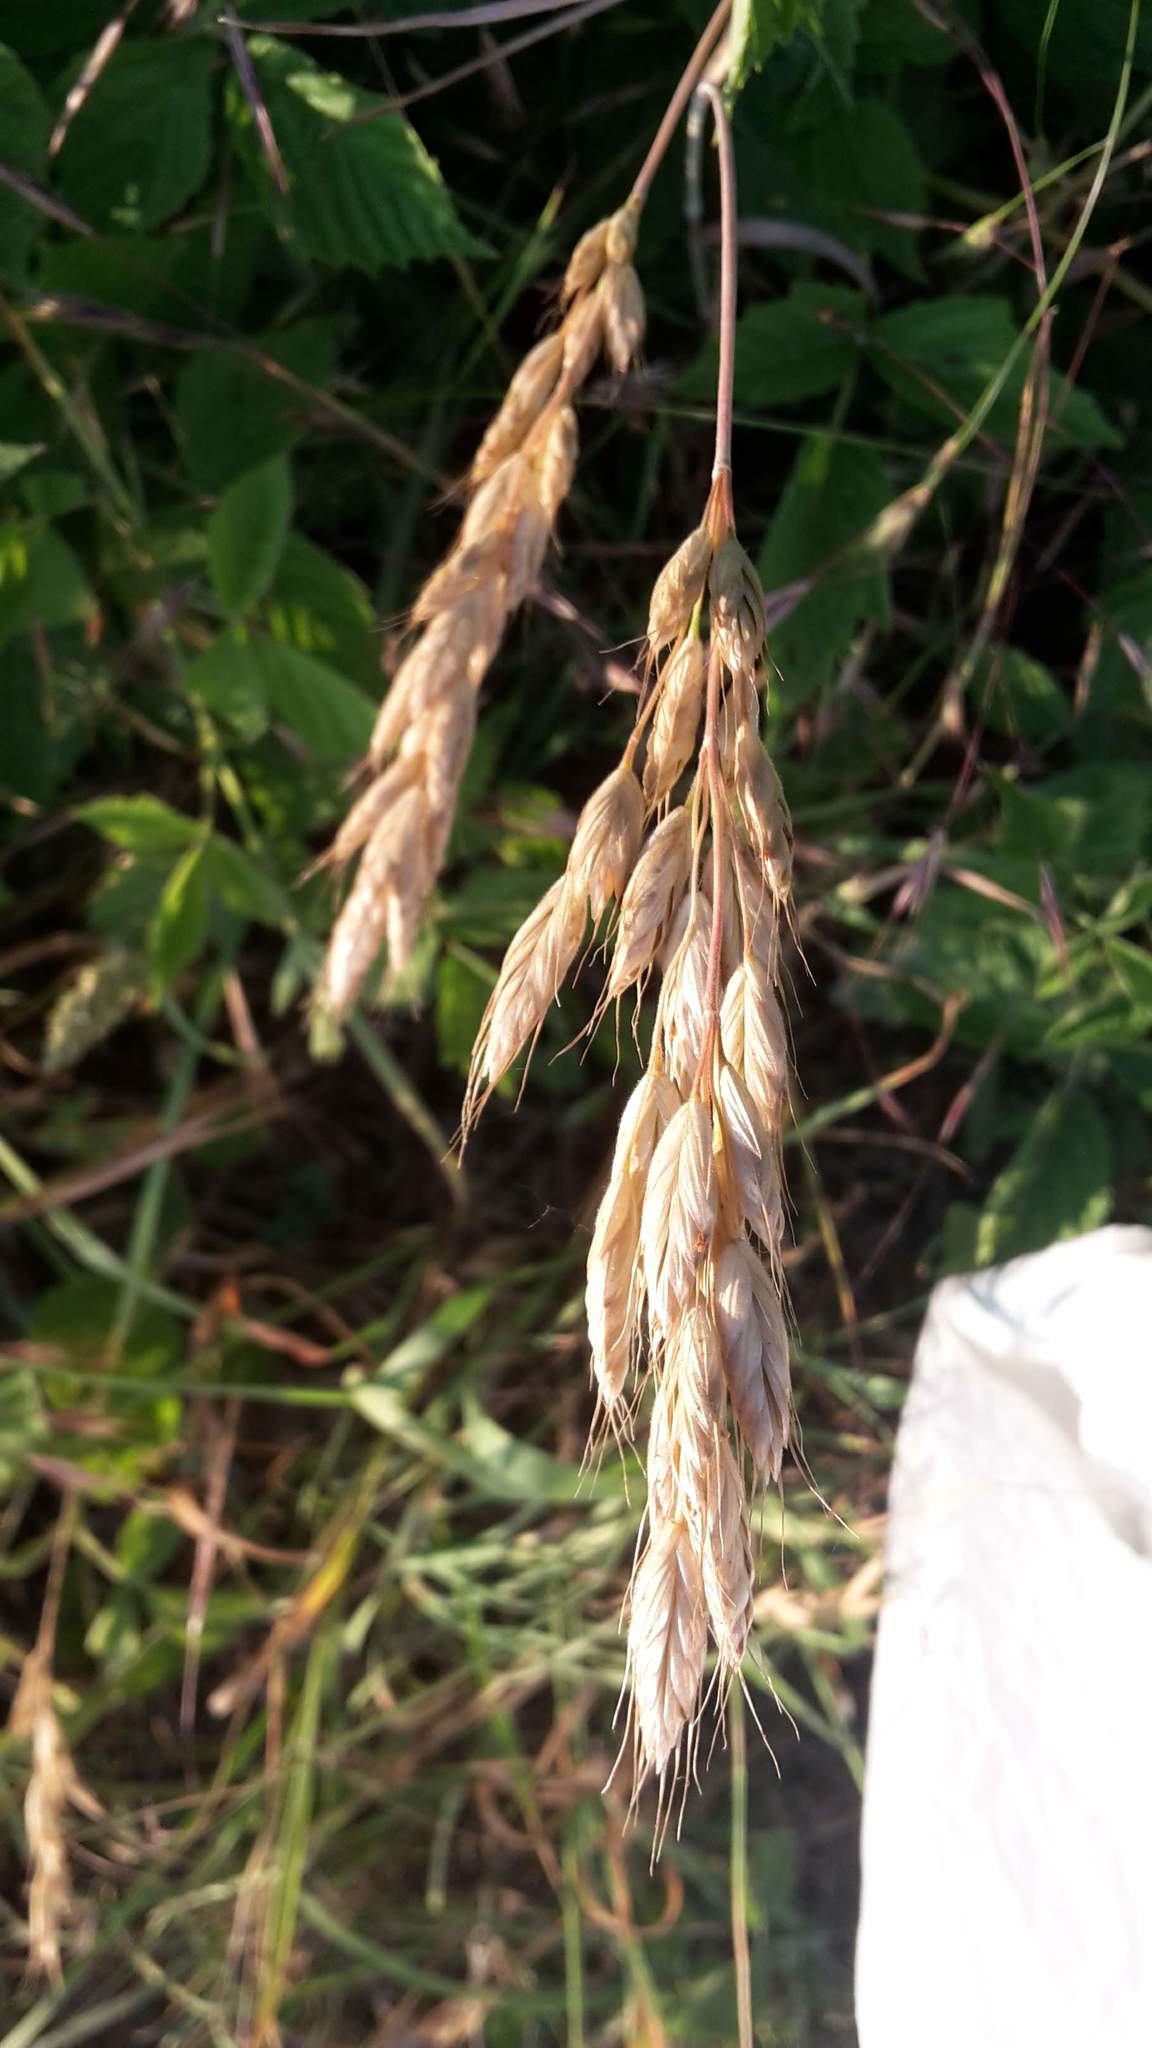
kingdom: Plantae
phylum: Tracheophyta
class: Liliopsida
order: Poales
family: Poaceae
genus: Bromus
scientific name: Bromus hordeaceus
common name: Soft brome
